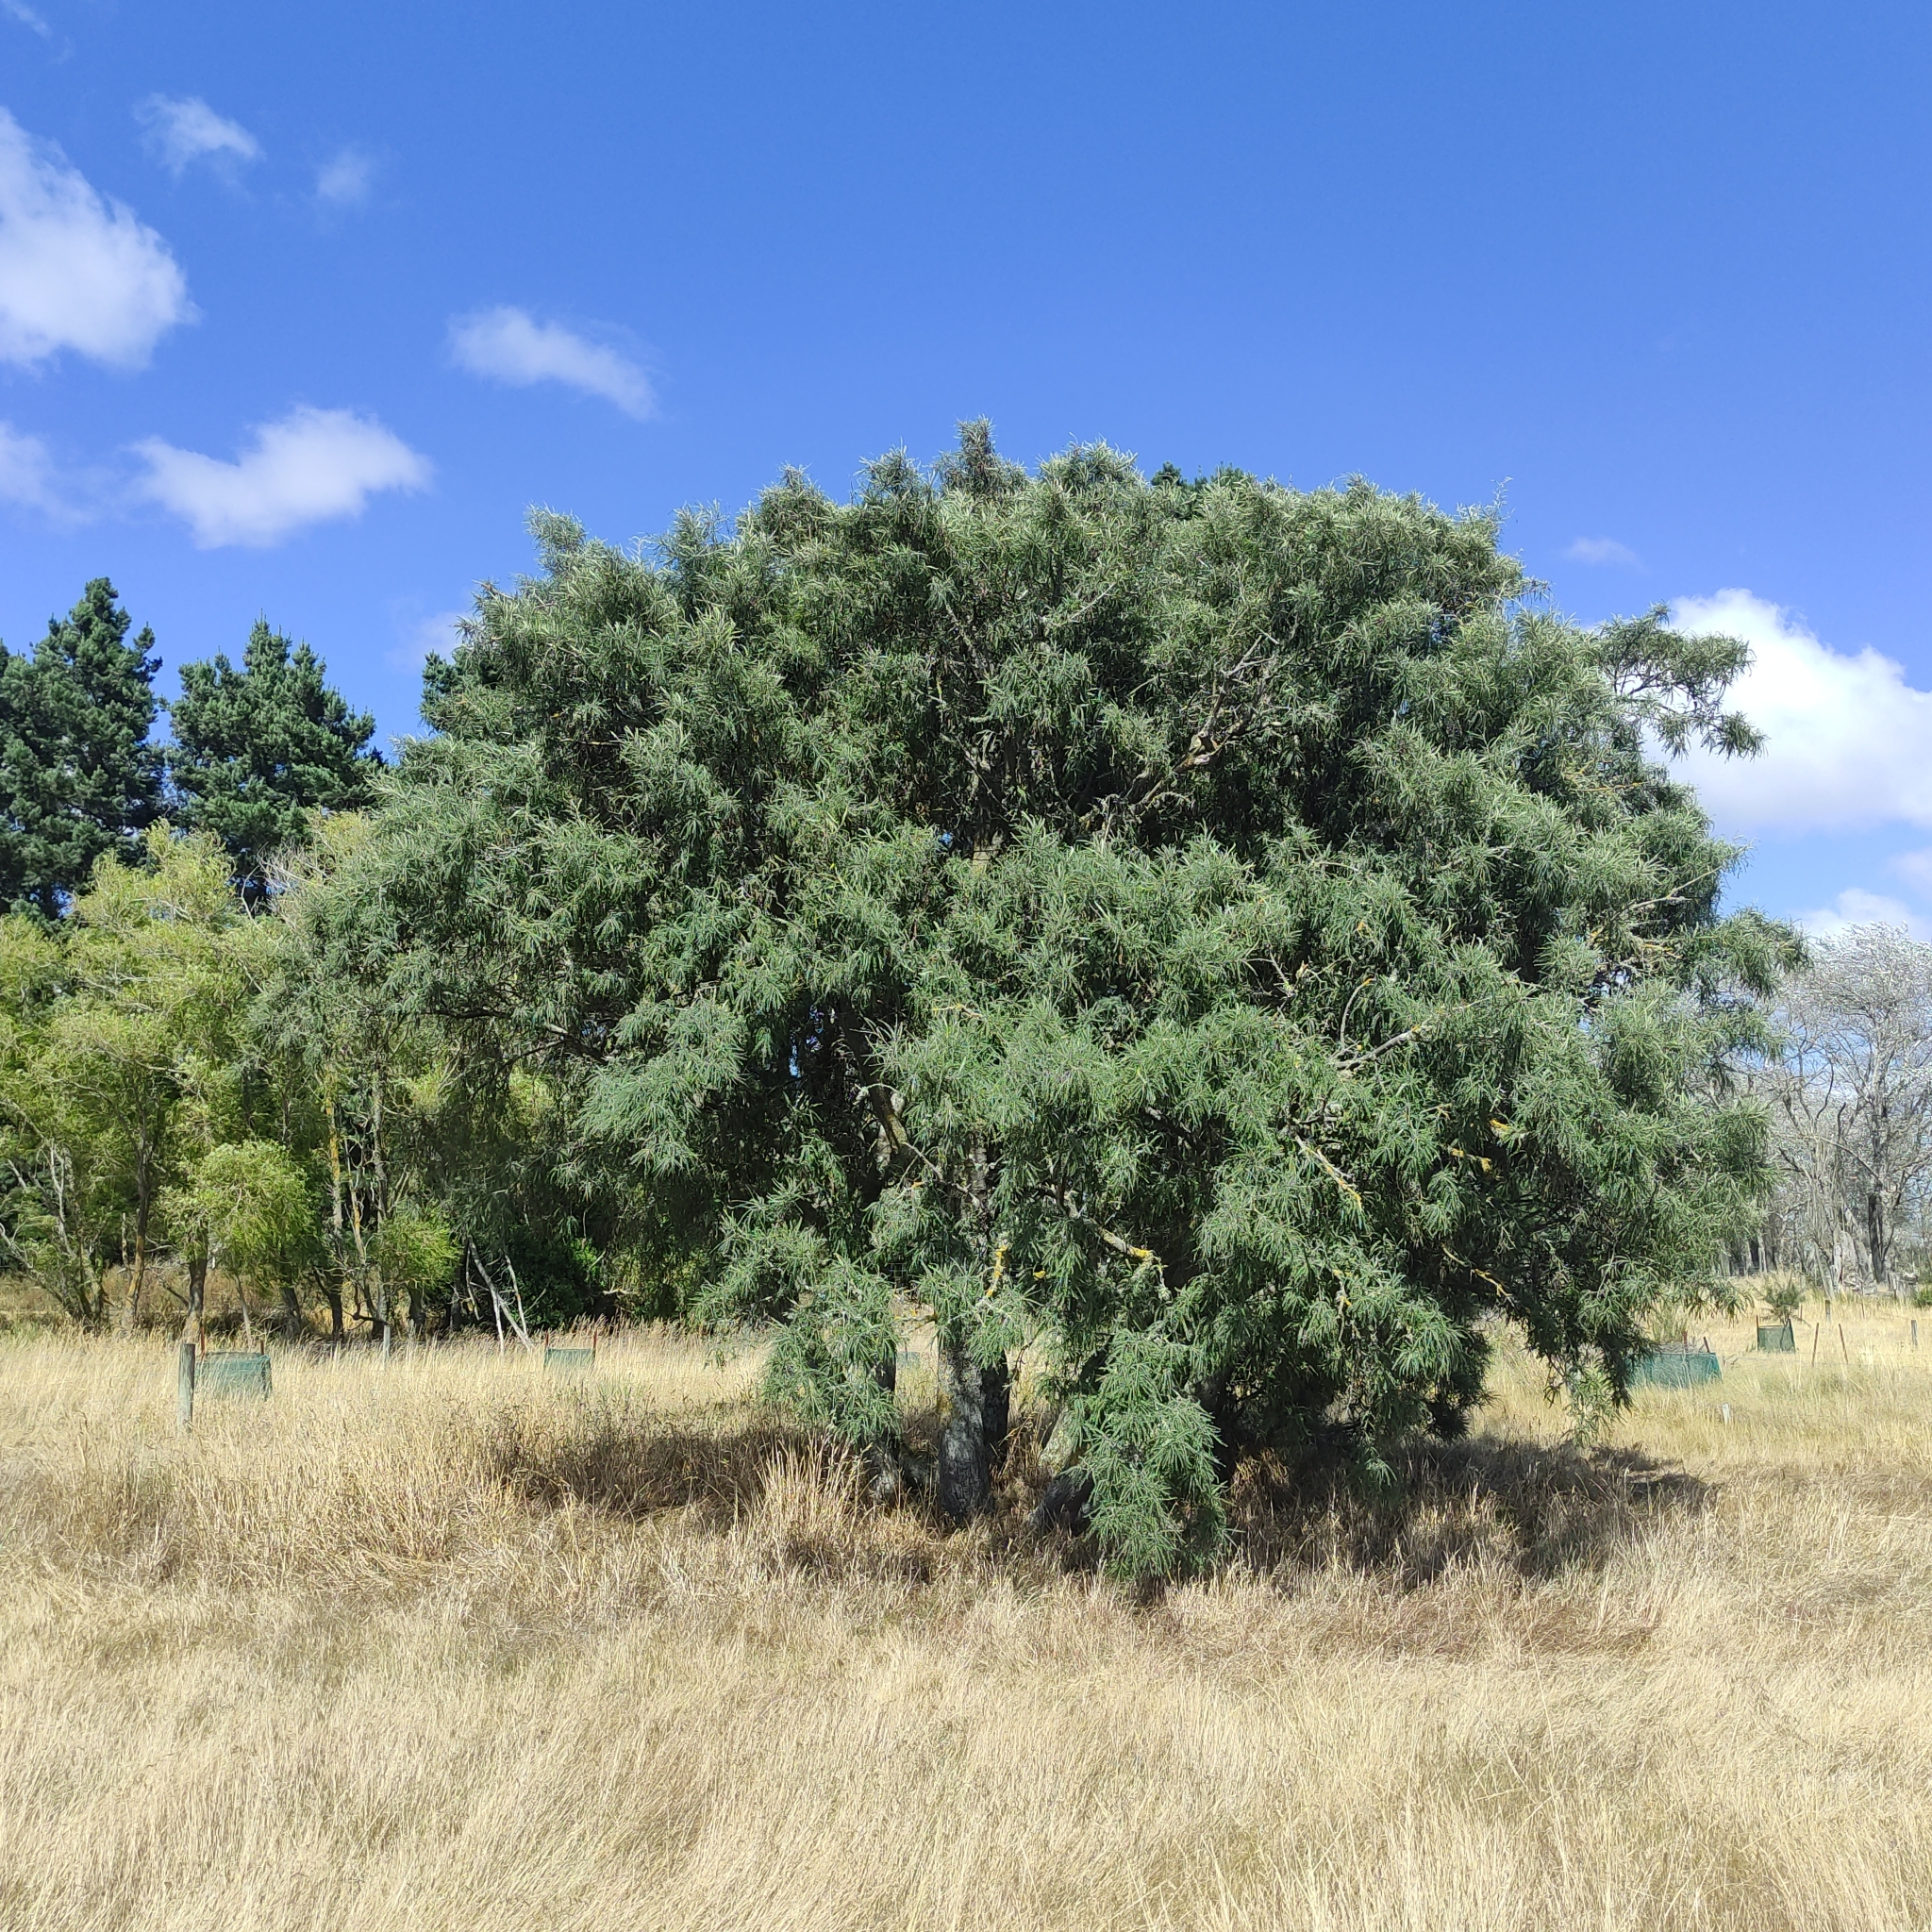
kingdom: Plantae
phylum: Tracheophyta
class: Magnoliopsida
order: Fabales
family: Fabaceae
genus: Sophora
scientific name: Sophora microphylla
